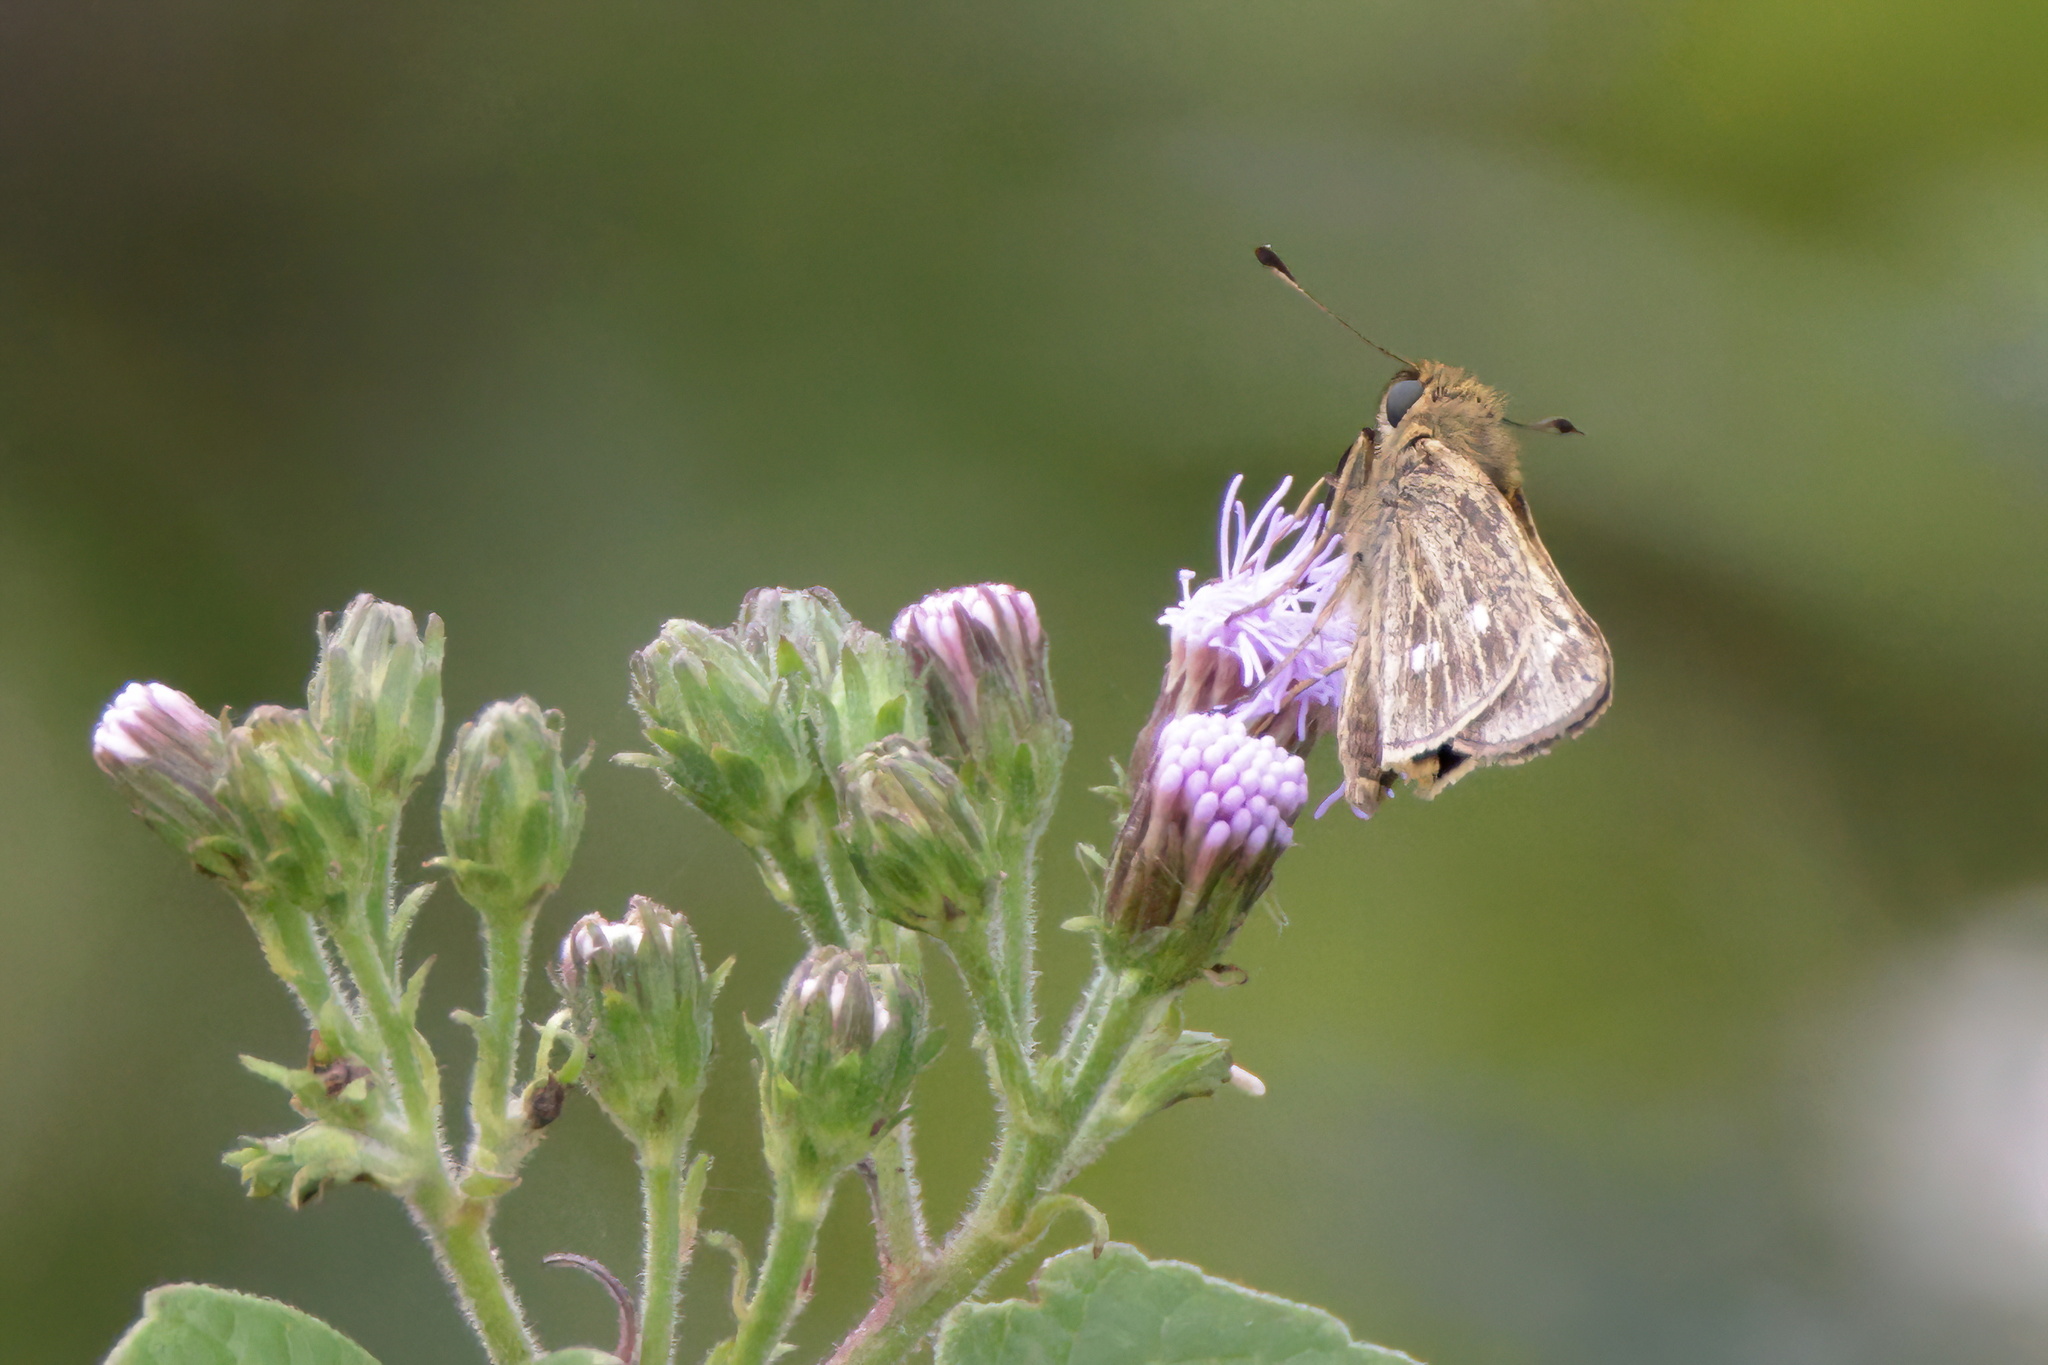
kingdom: Animalia
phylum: Arthropoda
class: Insecta
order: Lepidoptera
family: Hesperiidae
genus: Panoquina
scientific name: Panoquina panoquinoides
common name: Beach skipper
